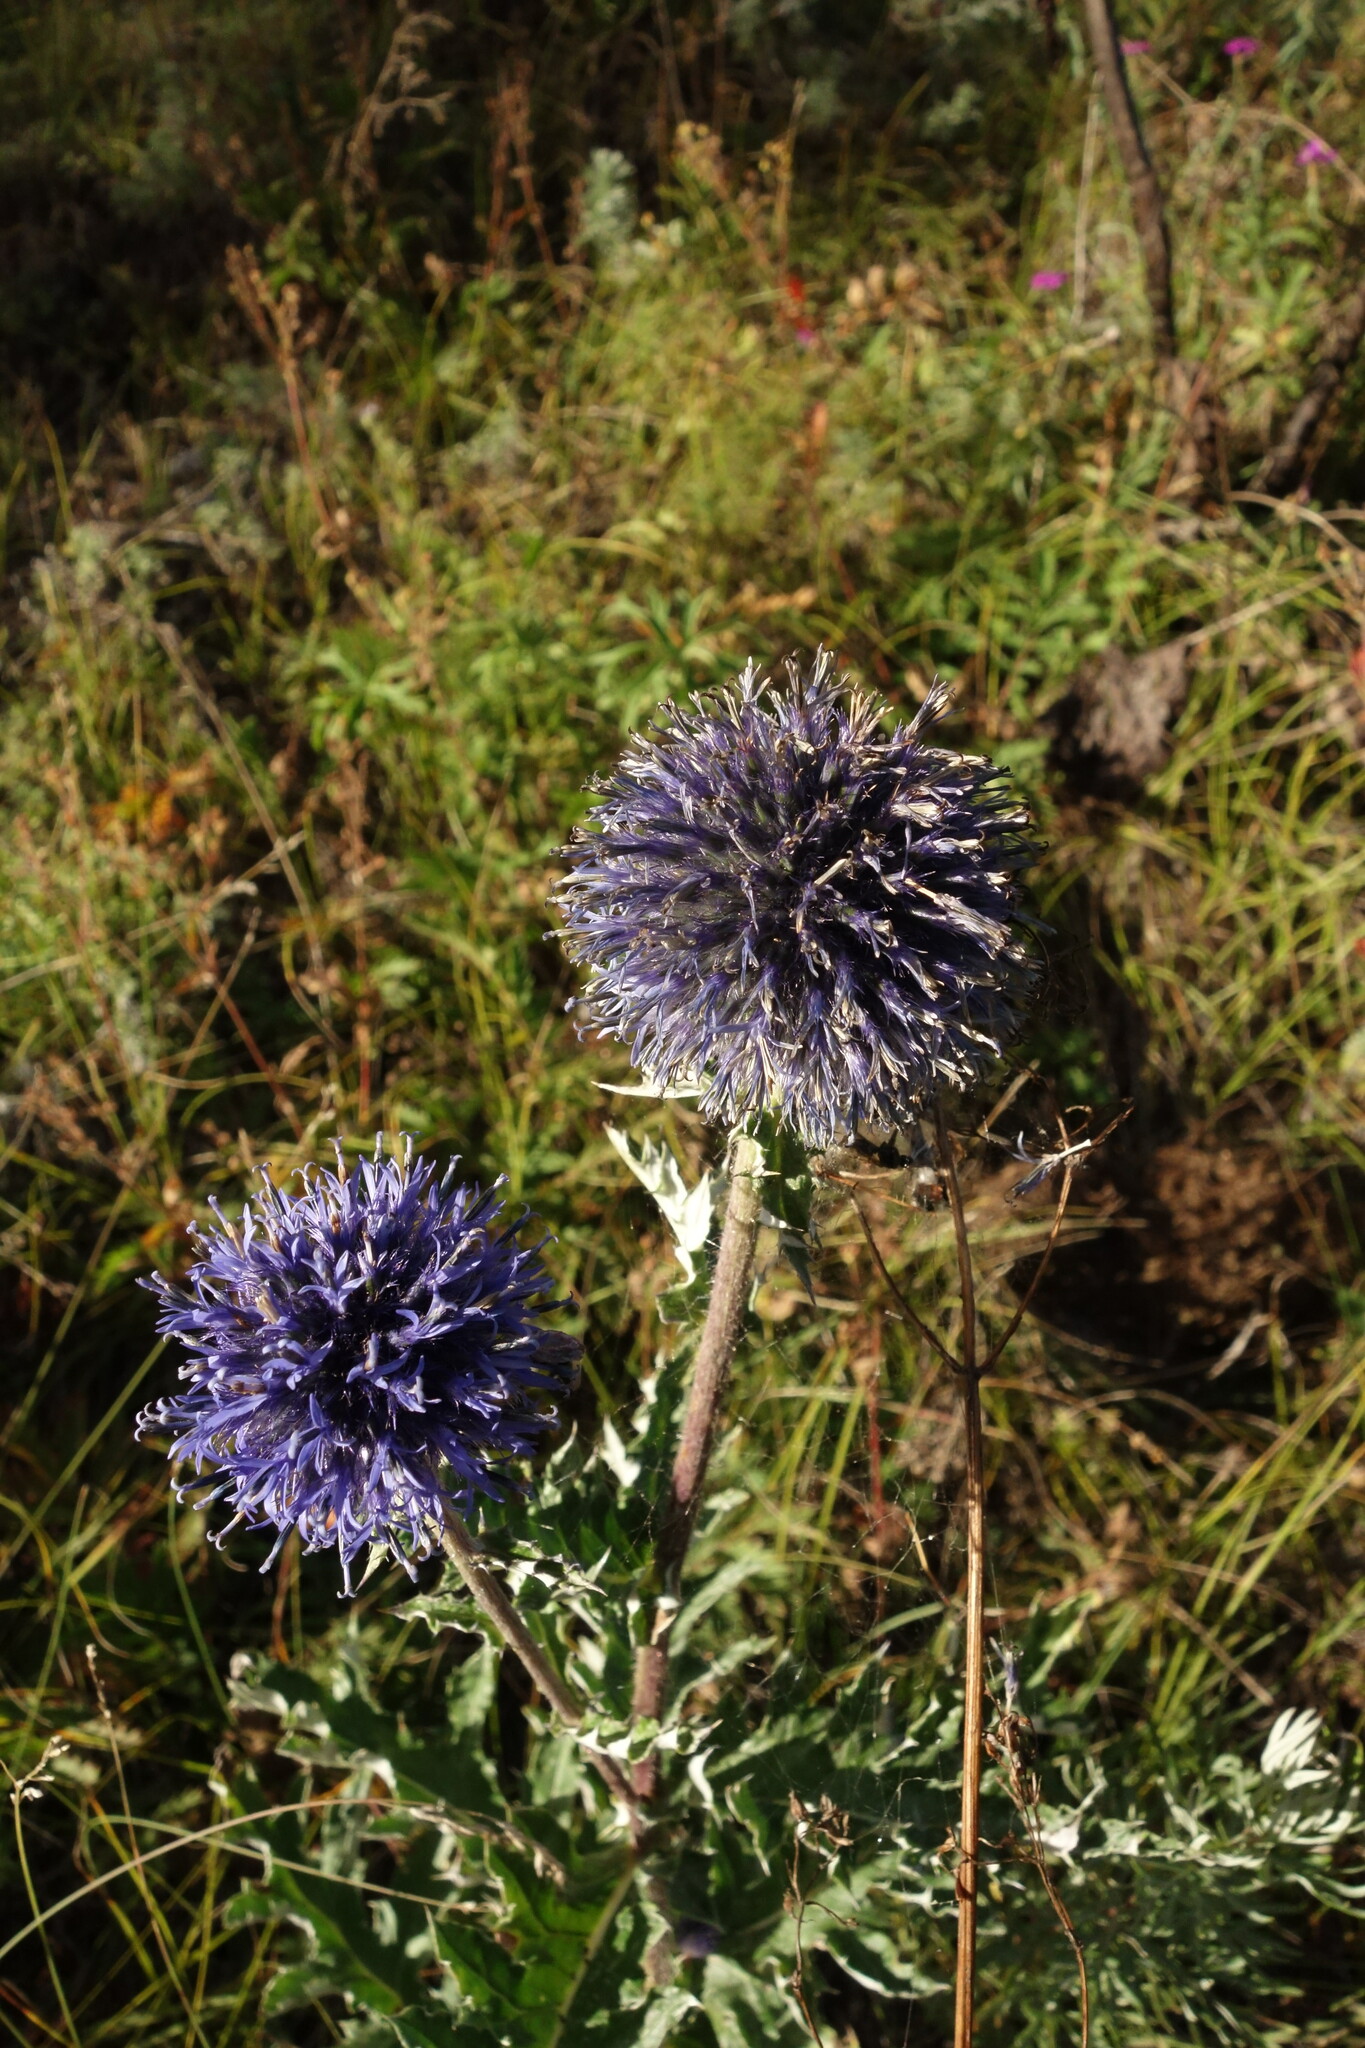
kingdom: Plantae
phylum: Tracheophyta
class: Magnoliopsida
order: Asterales
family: Asteraceae
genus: Echinops
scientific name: Echinops davuricus
